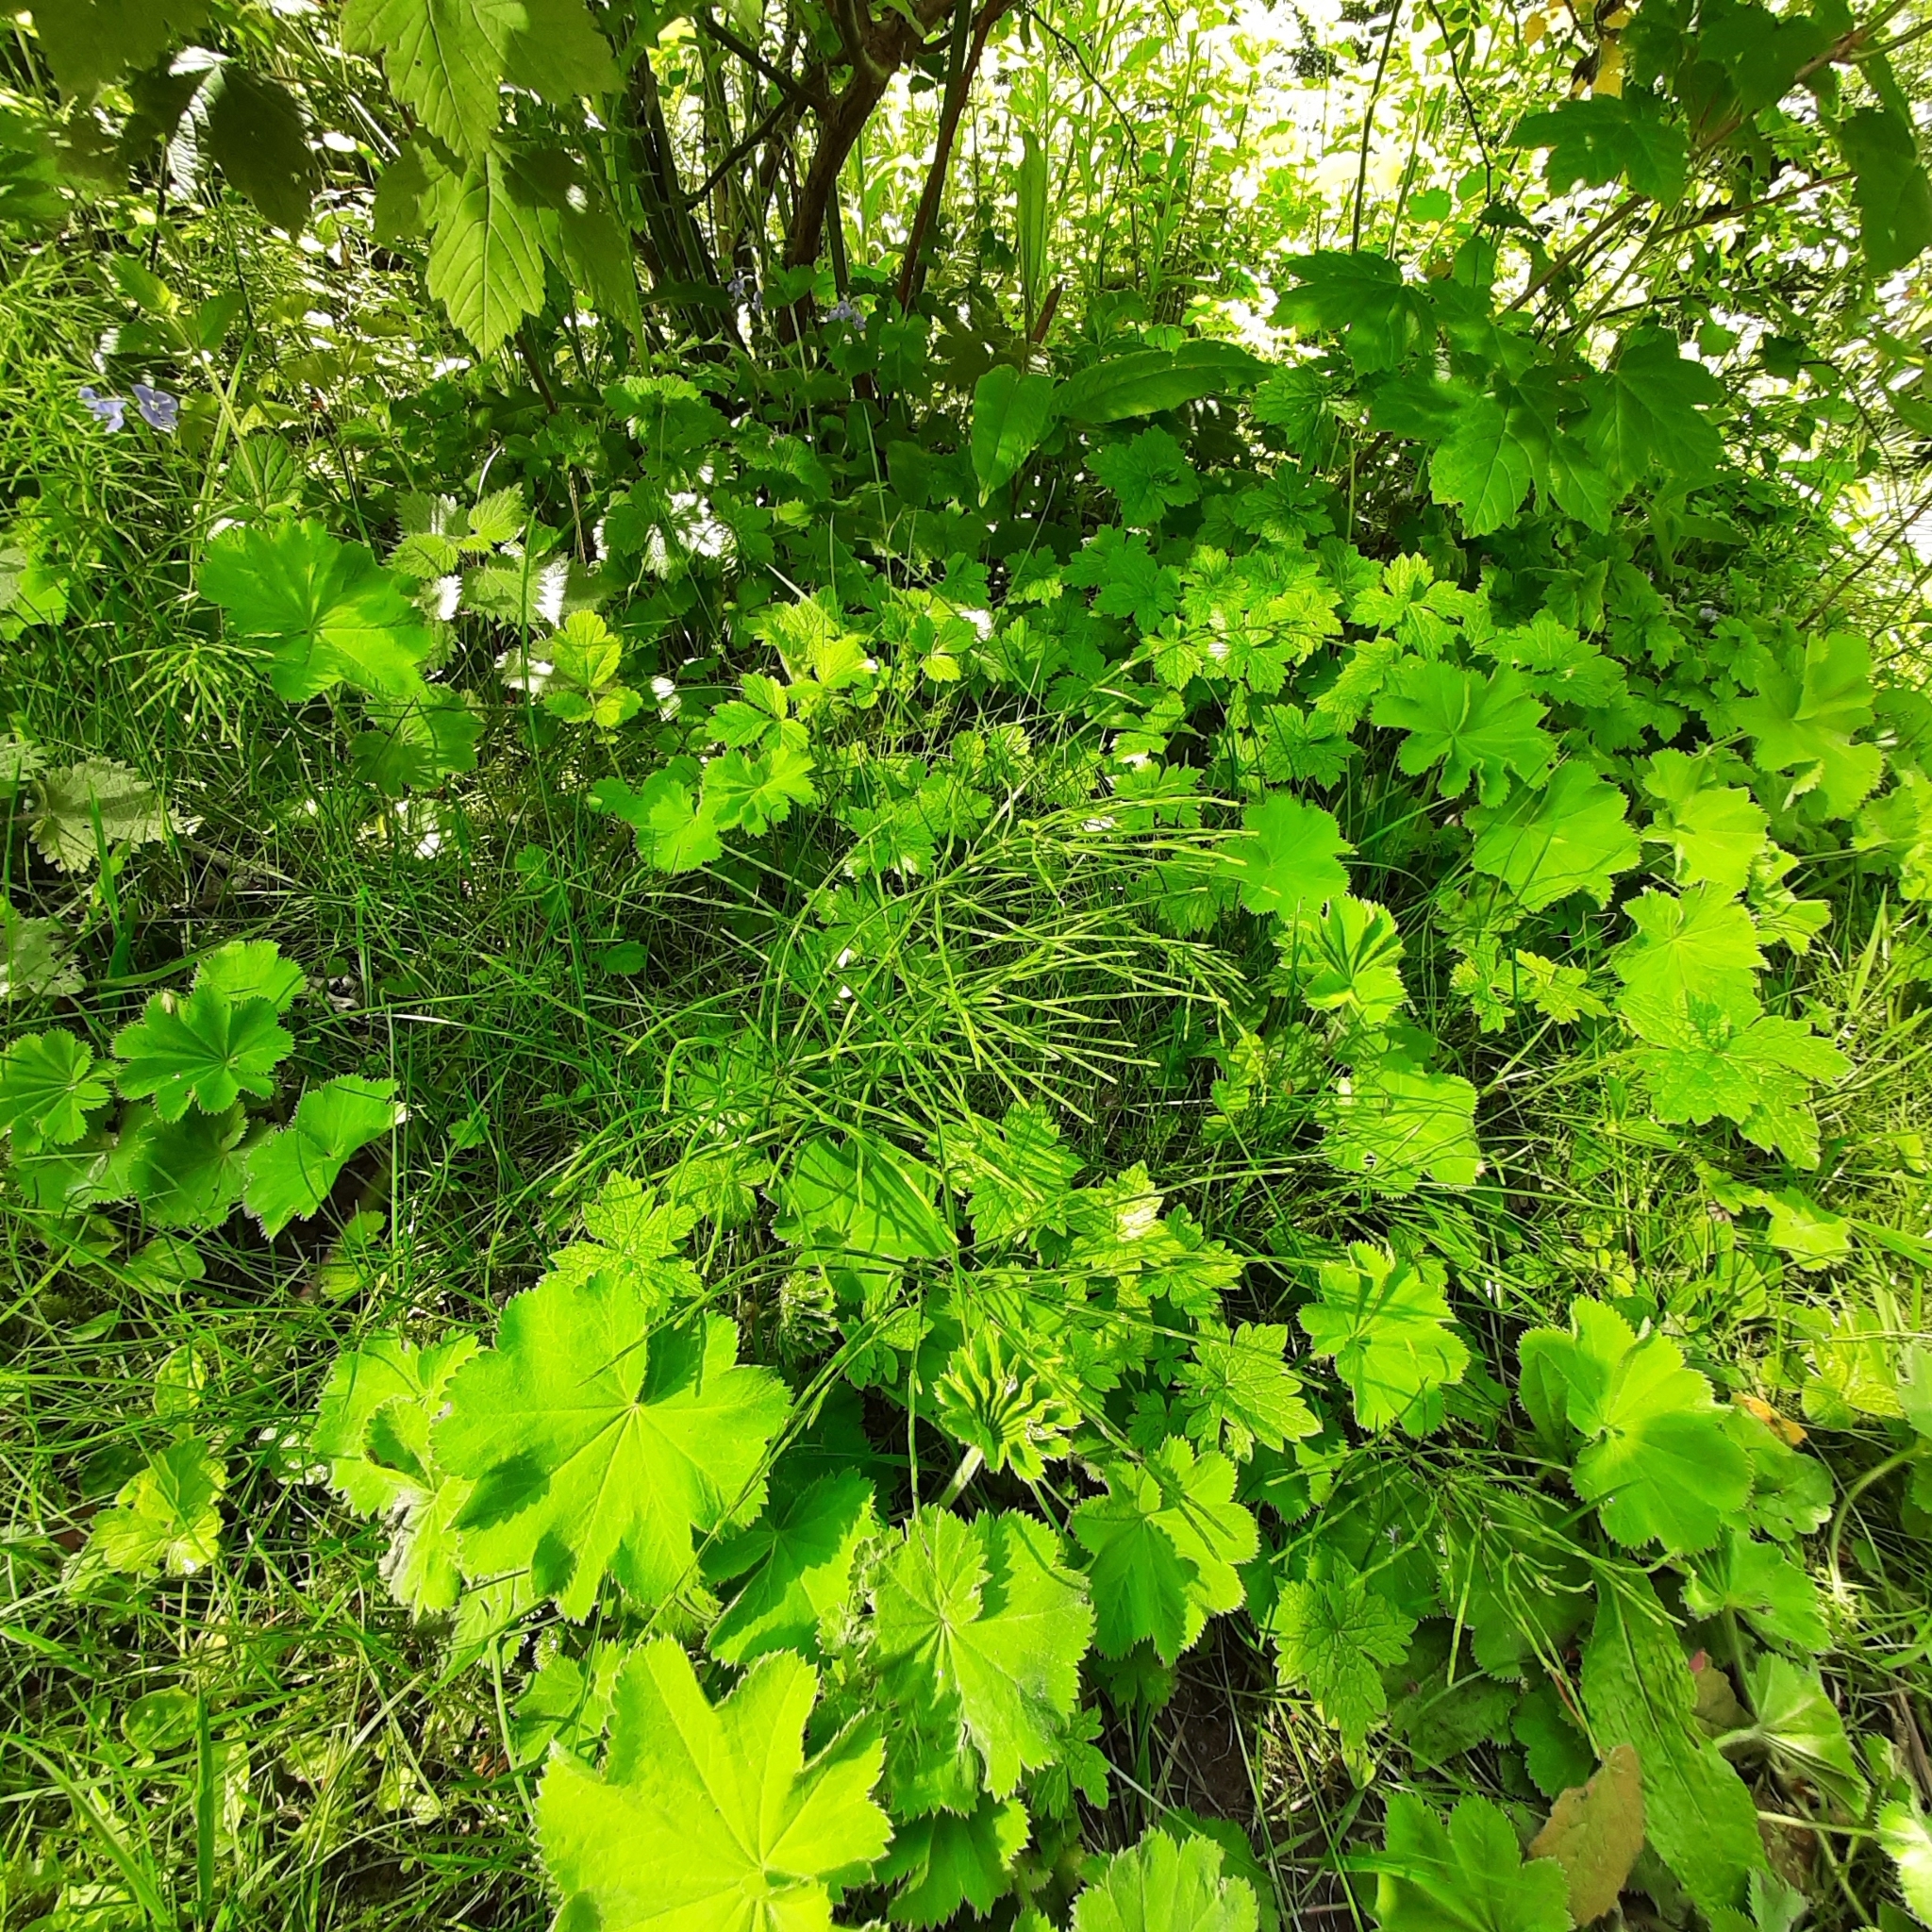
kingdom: Plantae
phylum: Tracheophyta
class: Polypodiopsida
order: Equisetales
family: Equisetaceae
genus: Equisetum
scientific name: Equisetum arvense
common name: Field horsetail
